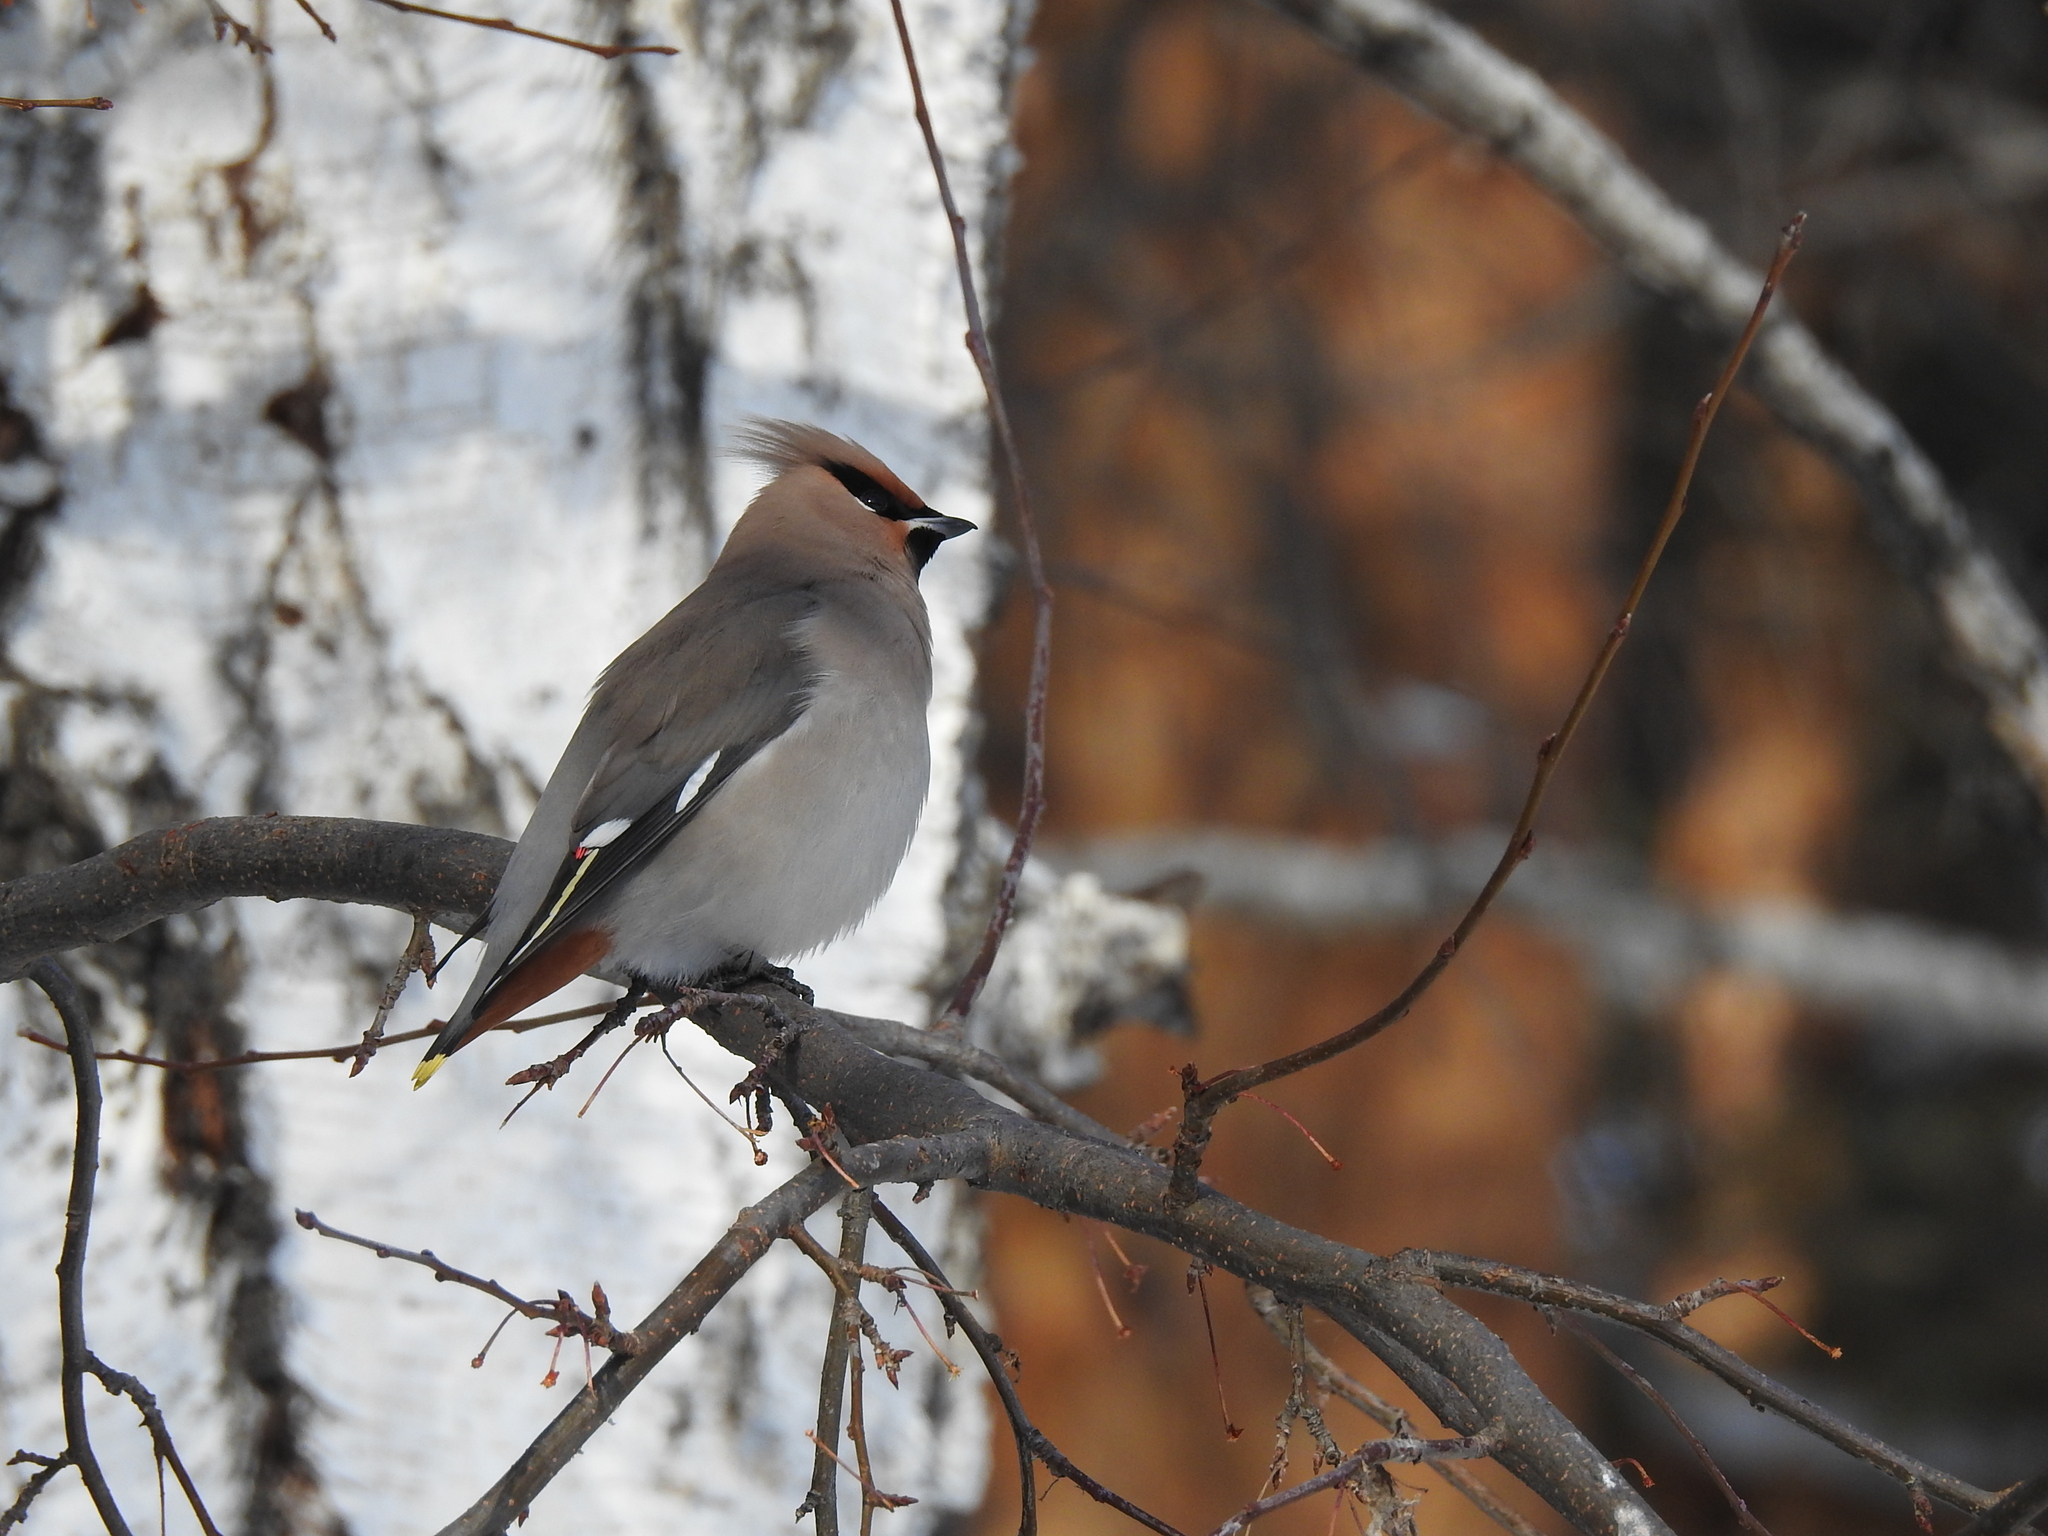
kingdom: Animalia
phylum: Chordata
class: Aves
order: Passeriformes
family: Bombycillidae
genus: Bombycilla
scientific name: Bombycilla garrulus
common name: Bohemian waxwing
